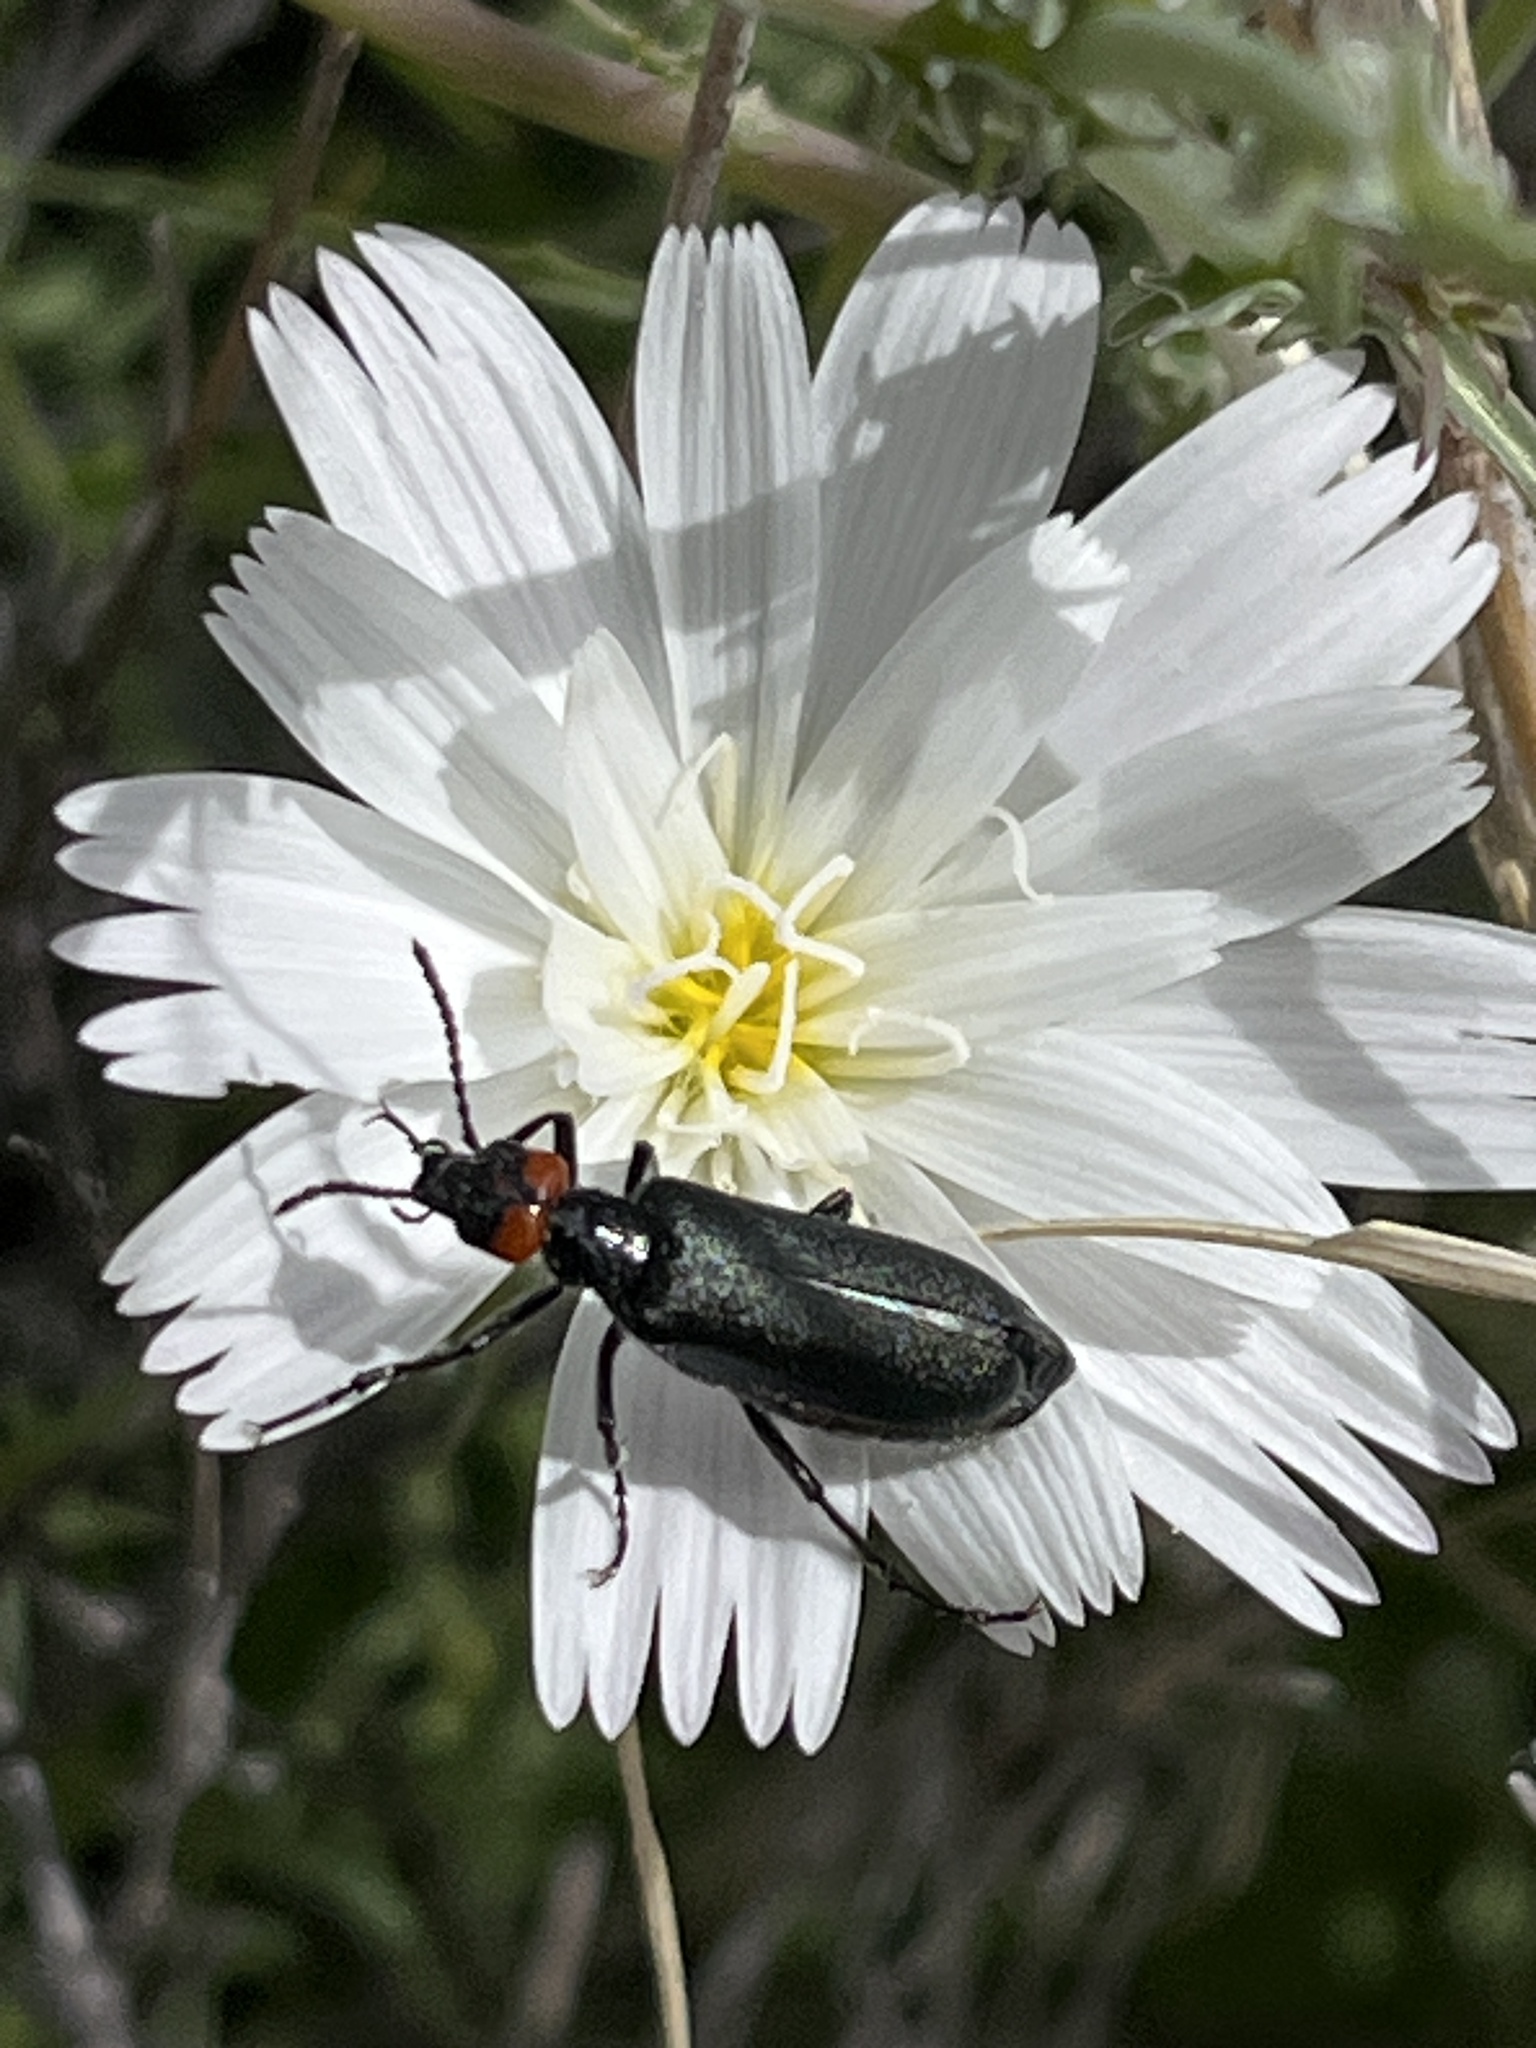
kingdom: Animalia
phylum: Arthropoda
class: Insecta
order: Coleoptera
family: Meloidae
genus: Lytta
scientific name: Lytta auriculata
